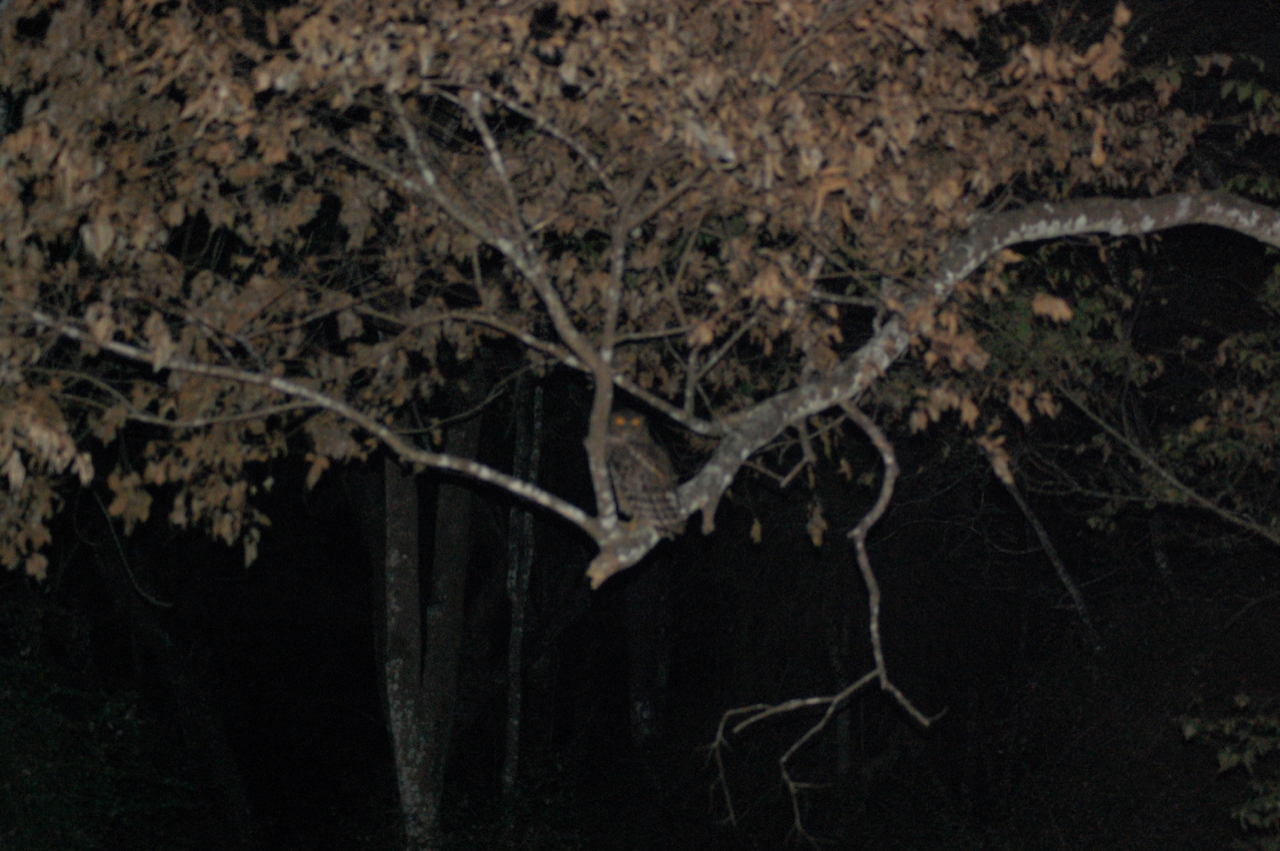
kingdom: Animalia
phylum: Chordata
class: Aves
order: Strigiformes
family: Strigidae
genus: Ketupa
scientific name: Ketupa zeylonensis
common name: Brown fish owl
